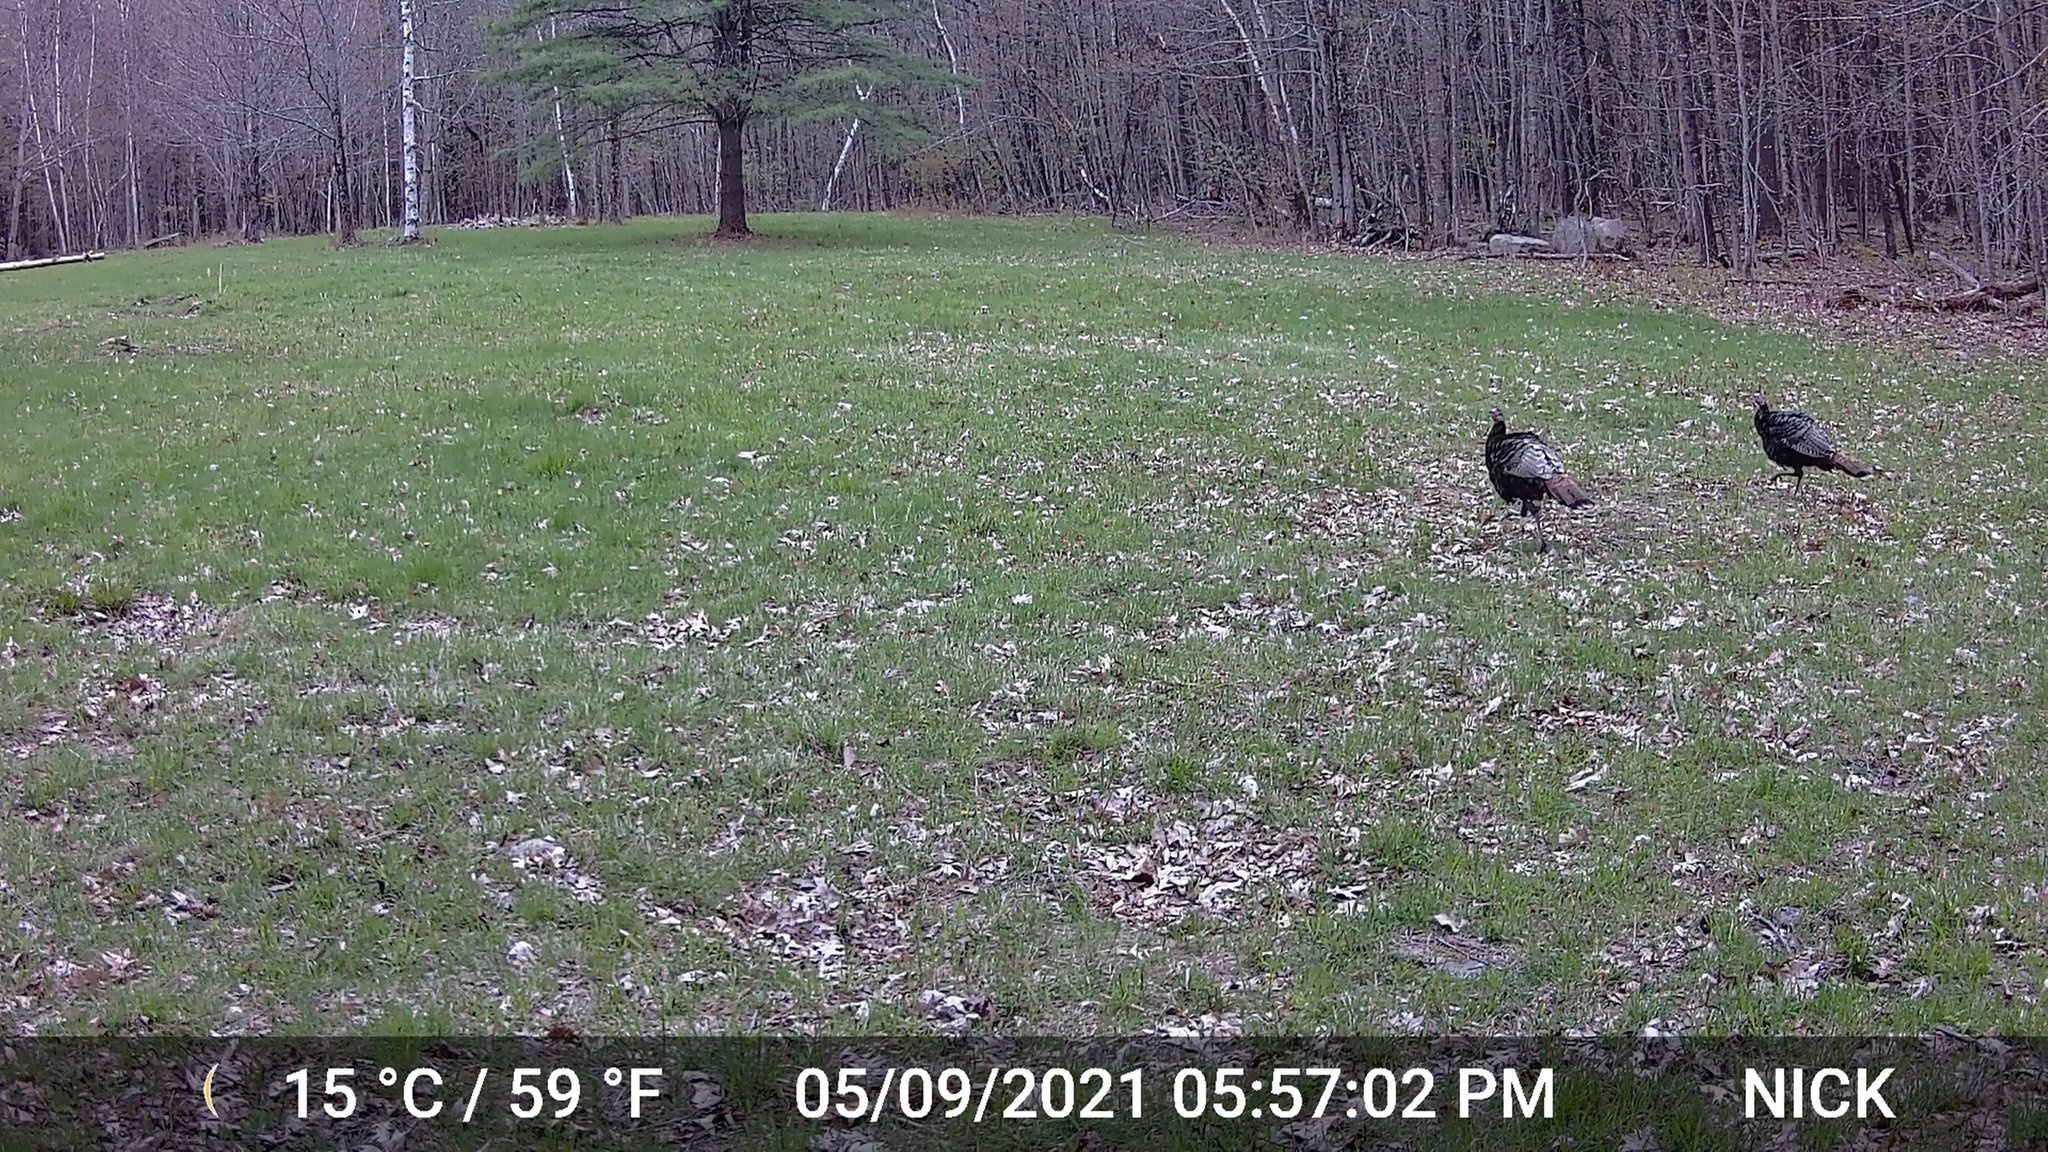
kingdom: Animalia
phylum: Chordata
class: Aves
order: Galliformes
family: Phasianidae
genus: Meleagris
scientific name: Meleagris gallopavo
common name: Wild turkey
